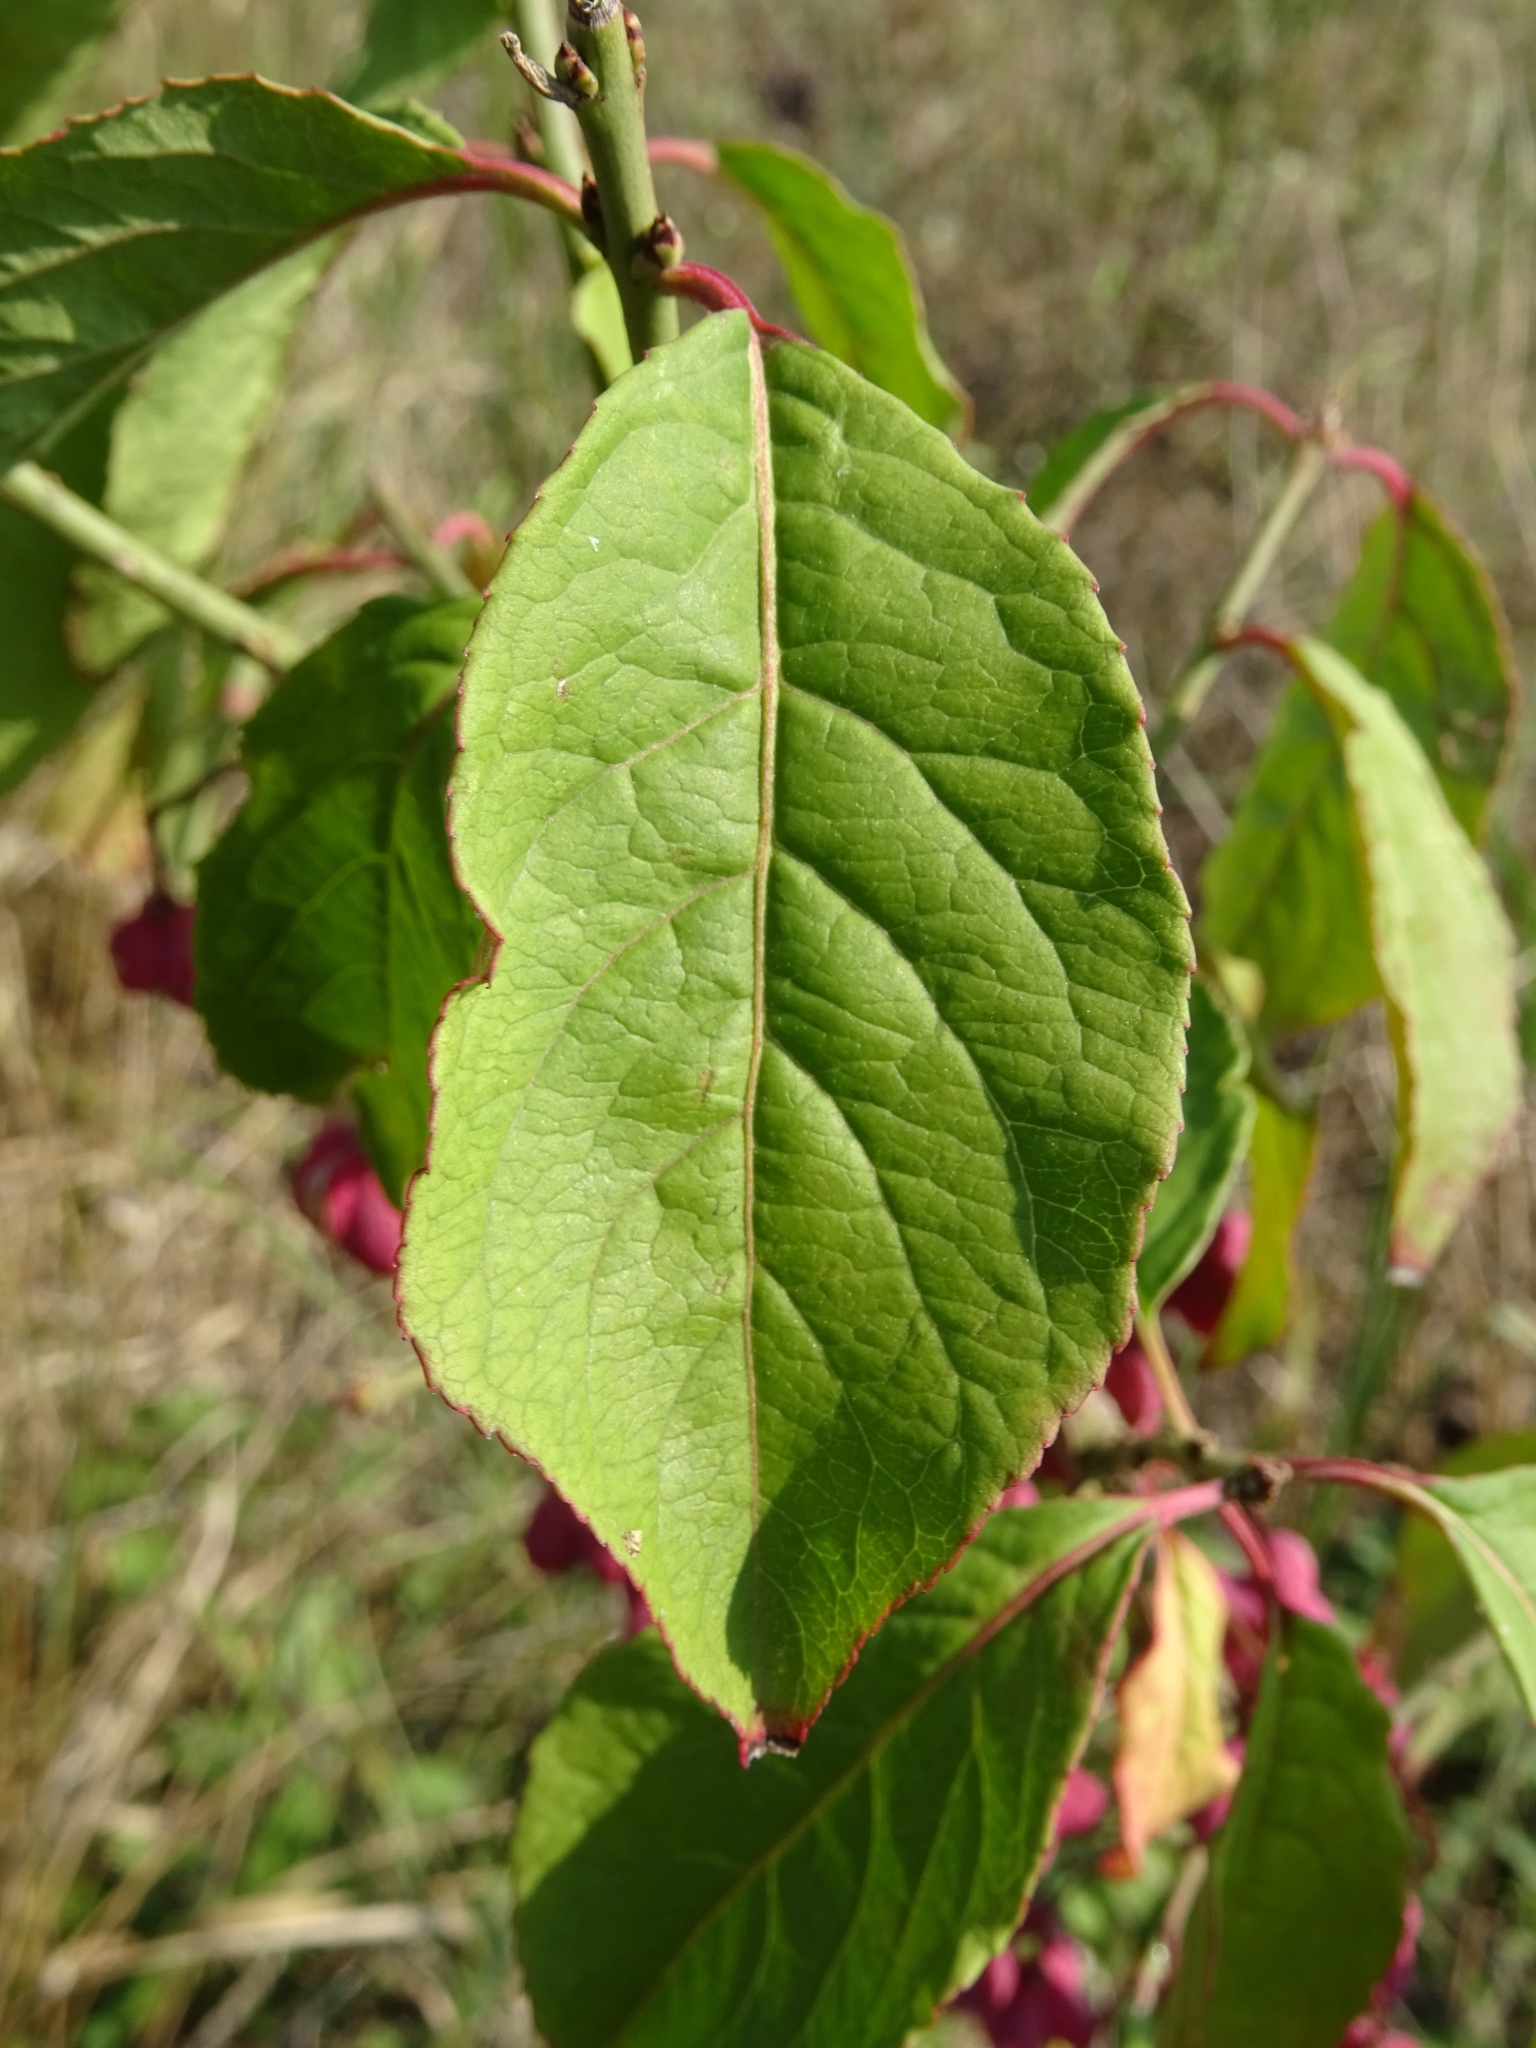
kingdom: Plantae
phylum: Tracheophyta
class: Magnoliopsida
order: Celastrales
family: Celastraceae
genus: Euonymus
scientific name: Euonymus europaeus
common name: Spindle
